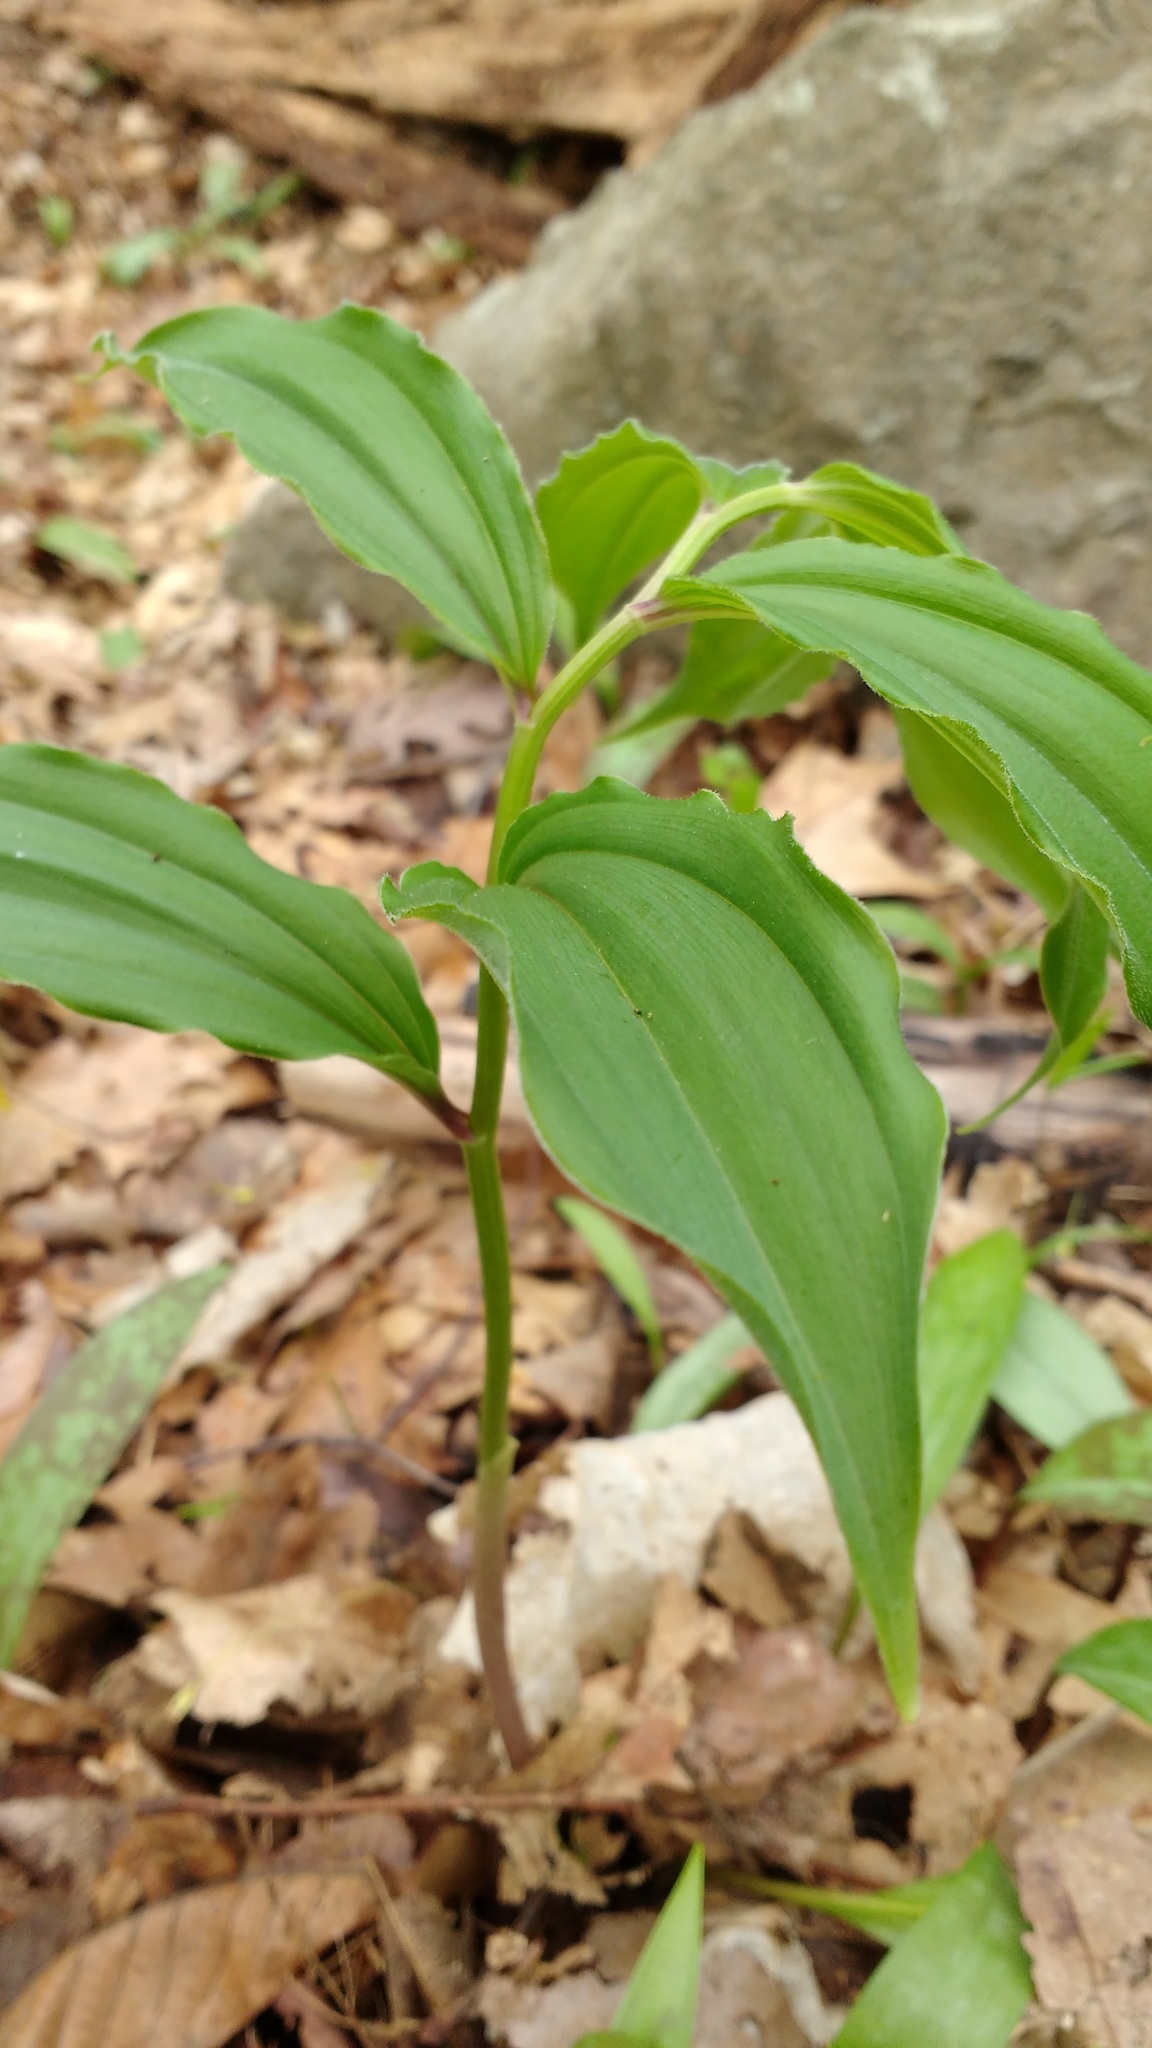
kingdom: Plantae
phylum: Tracheophyta
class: Liliopsida
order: Asparagales
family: Asparagaceae
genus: Maianthemum
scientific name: Maianthemum racemosum
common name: False spikenard
